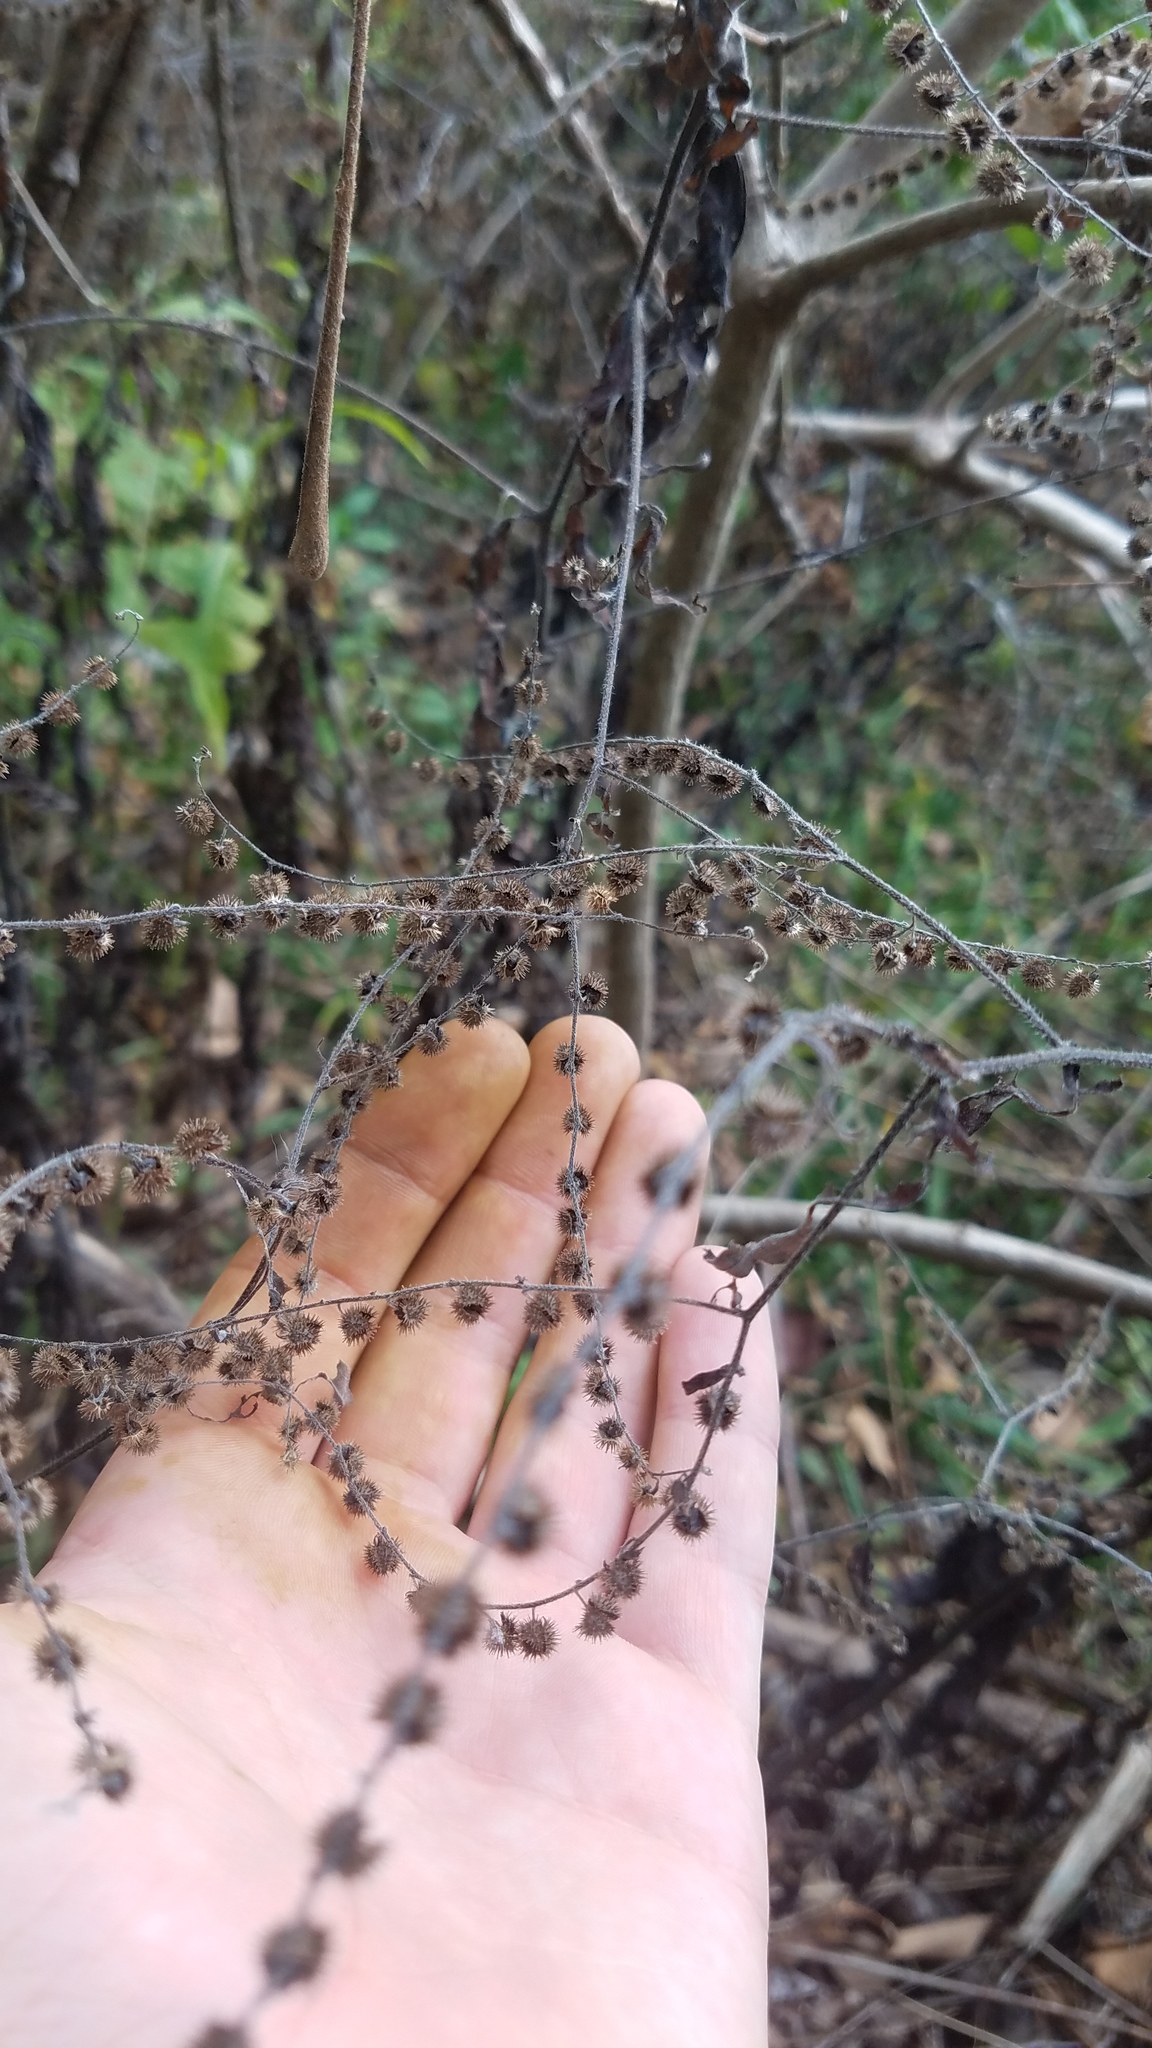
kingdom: Plantae
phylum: Tracheophyta
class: Magnoliopsida
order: Boraginales
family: Boraginaceae
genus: Hackelia
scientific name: Hackelia virginiana
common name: Beggar's-lice
